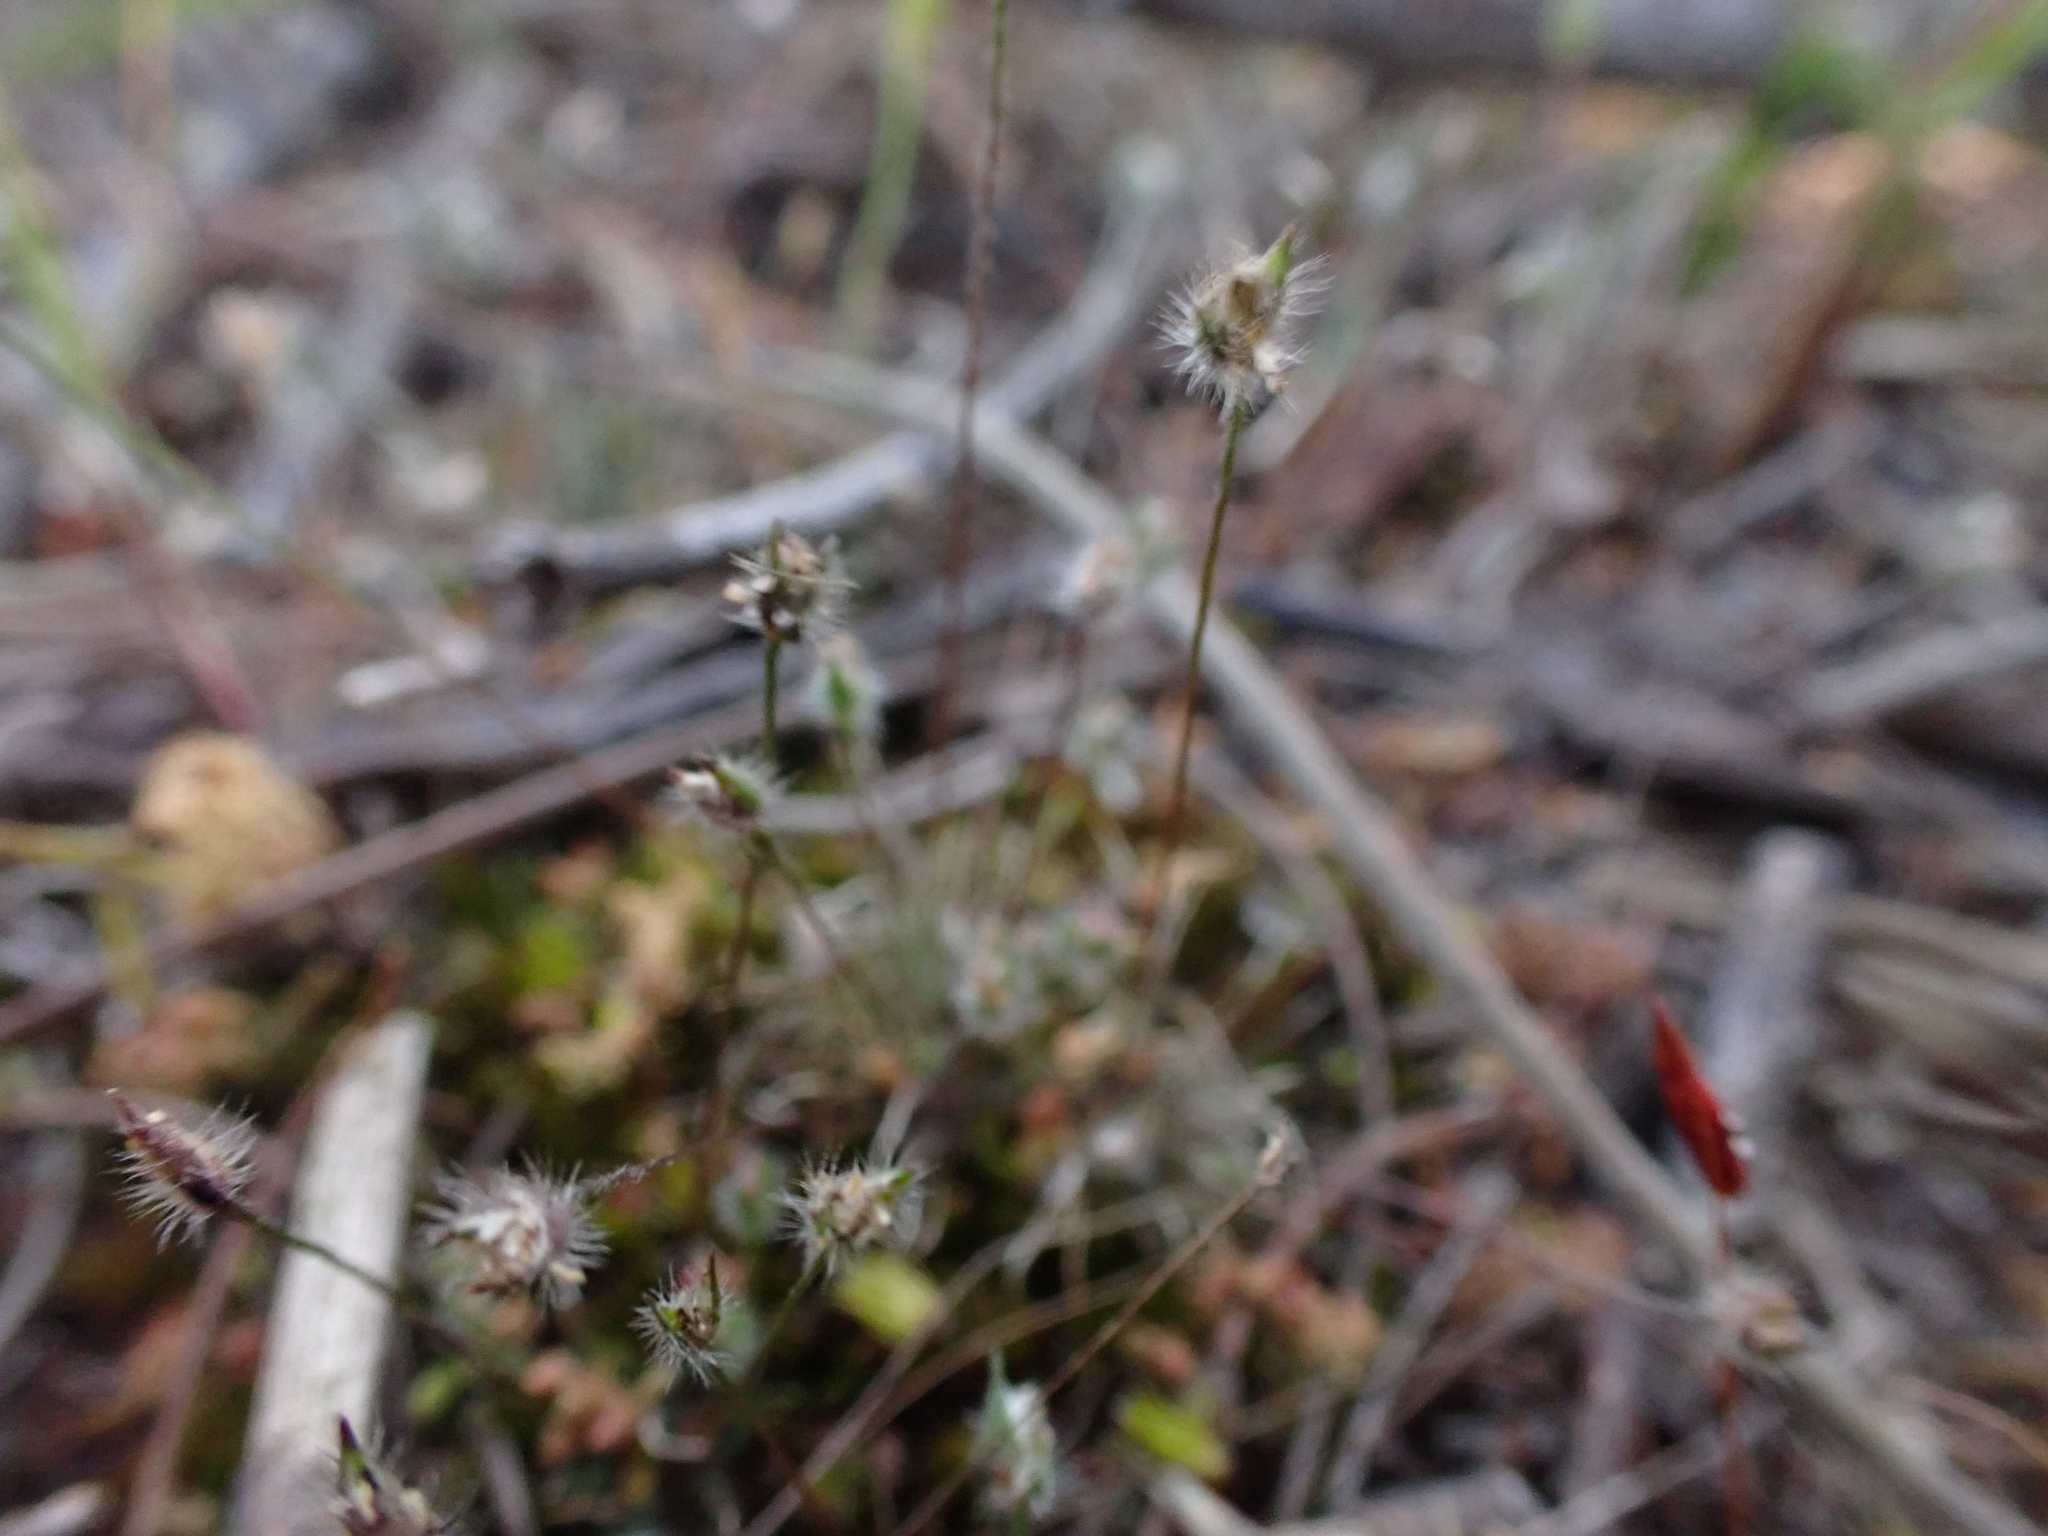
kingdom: Plantae
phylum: Tracheophyta
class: Liliopsida
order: Poales
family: Restionaceae
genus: Centrolepis
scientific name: Centrolepis strigosa
